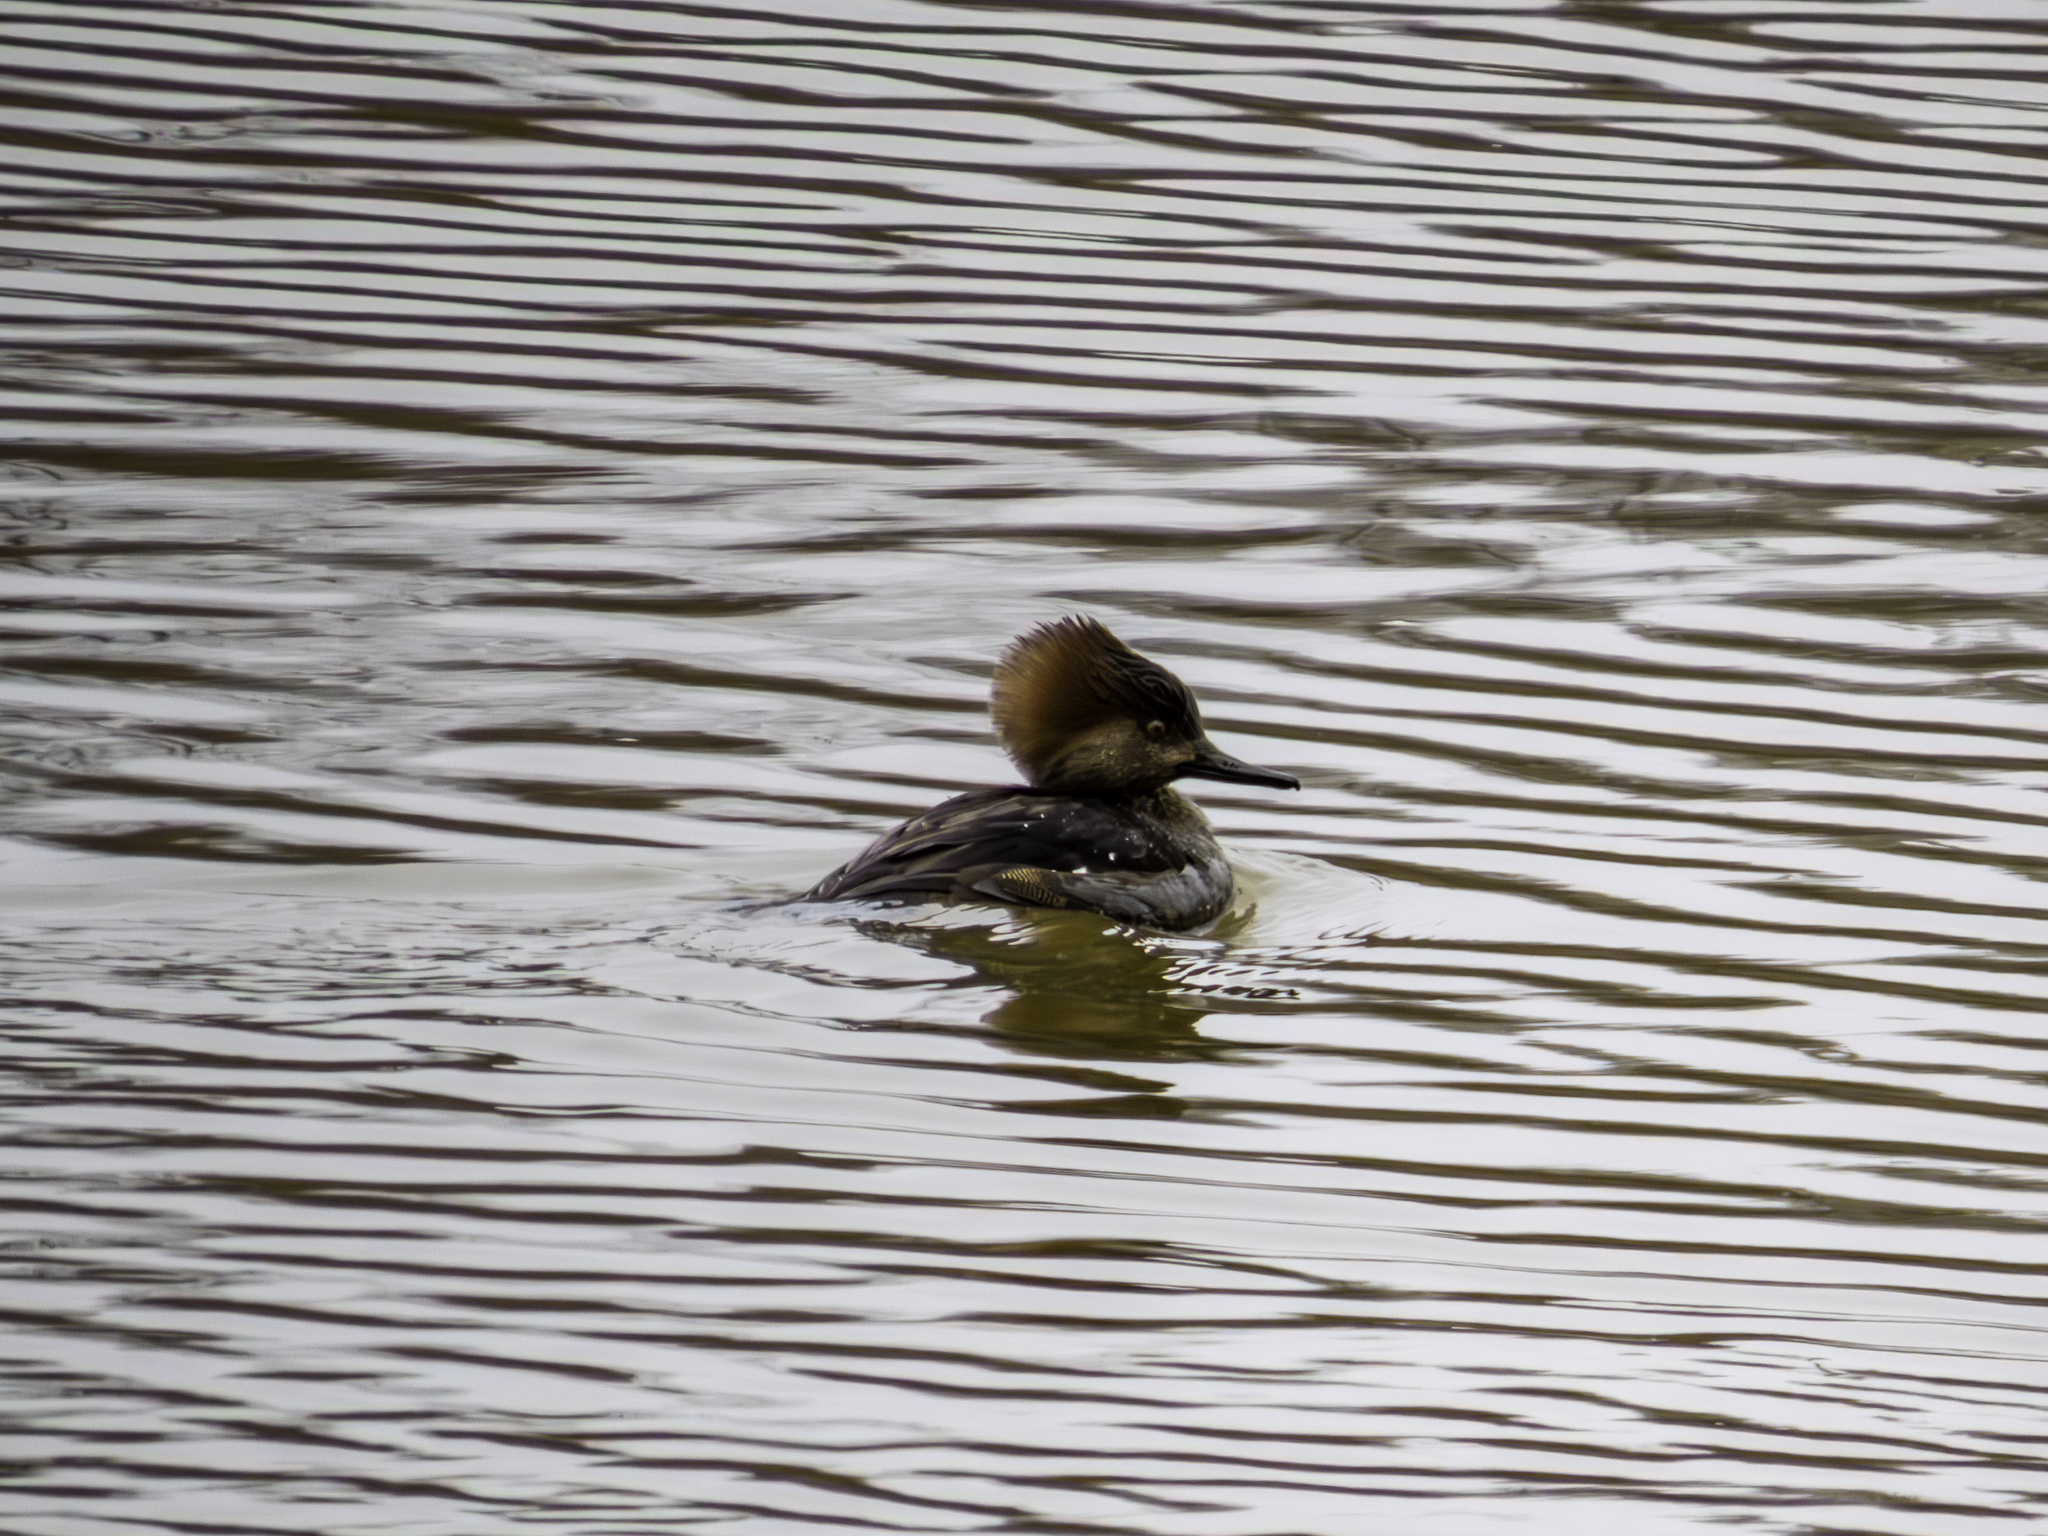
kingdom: Animalia
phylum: Chordata
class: Aves
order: Anseriformes
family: Anatidae
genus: Lophodytes
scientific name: Lophodytes cucullatus
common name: Hooded merganser
